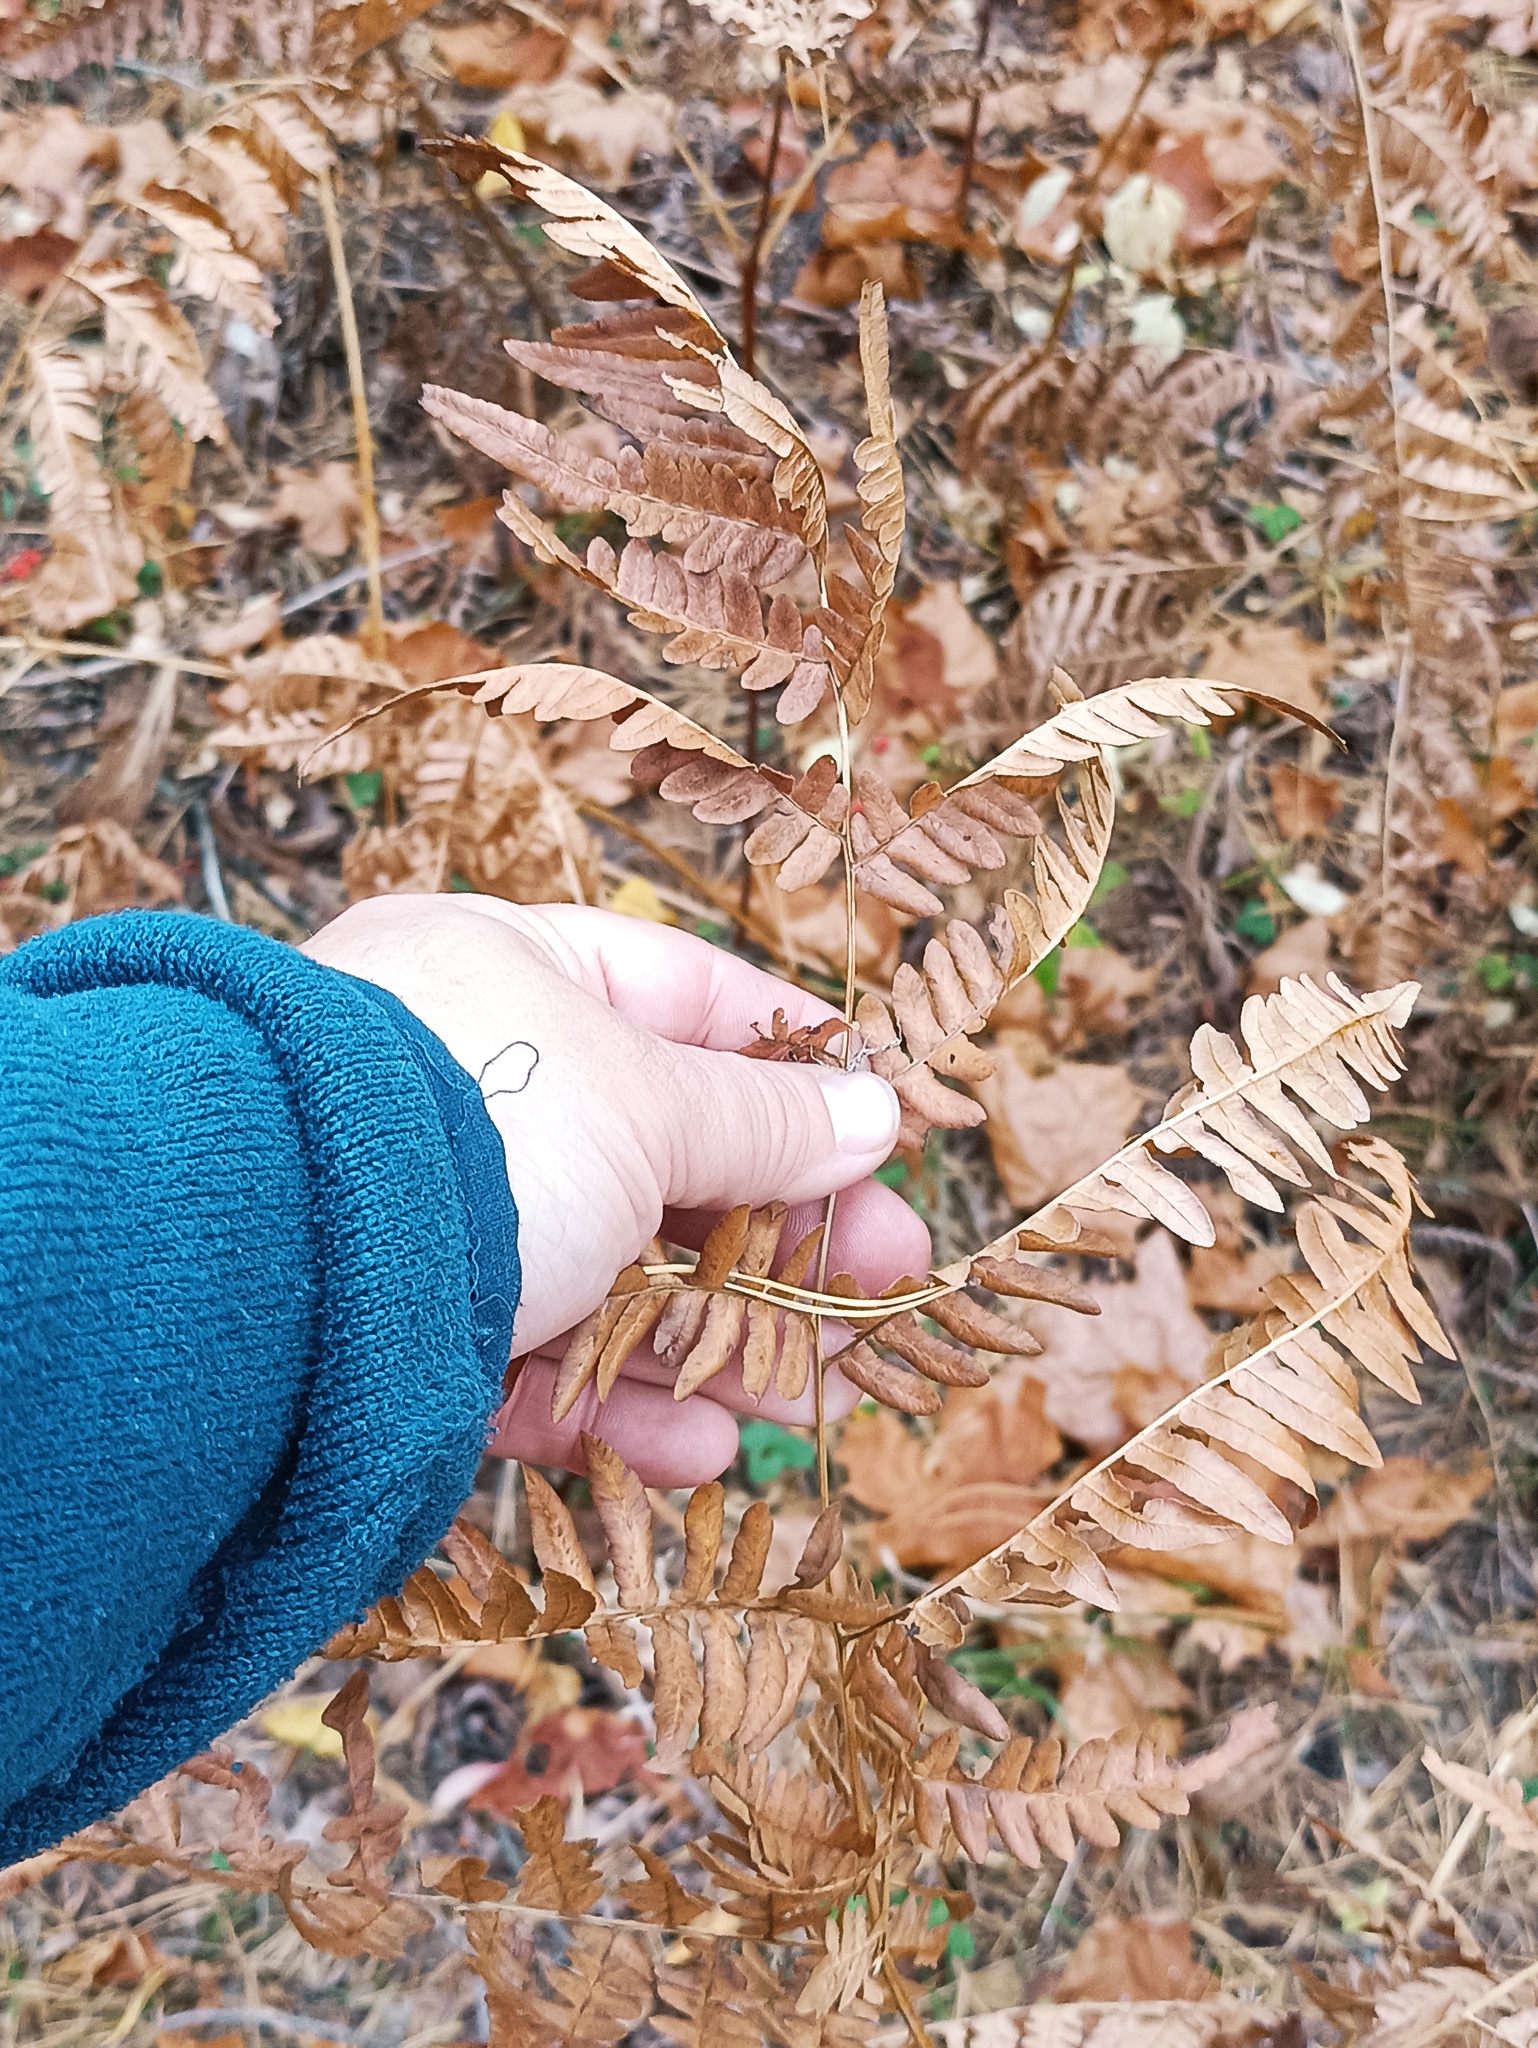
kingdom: Plantae
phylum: Tracheophyta
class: Polypodiopsida
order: Polypodiales
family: Dennstaedtiaceae
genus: Pteridium
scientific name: Pteridium aquilinum
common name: Bracken
